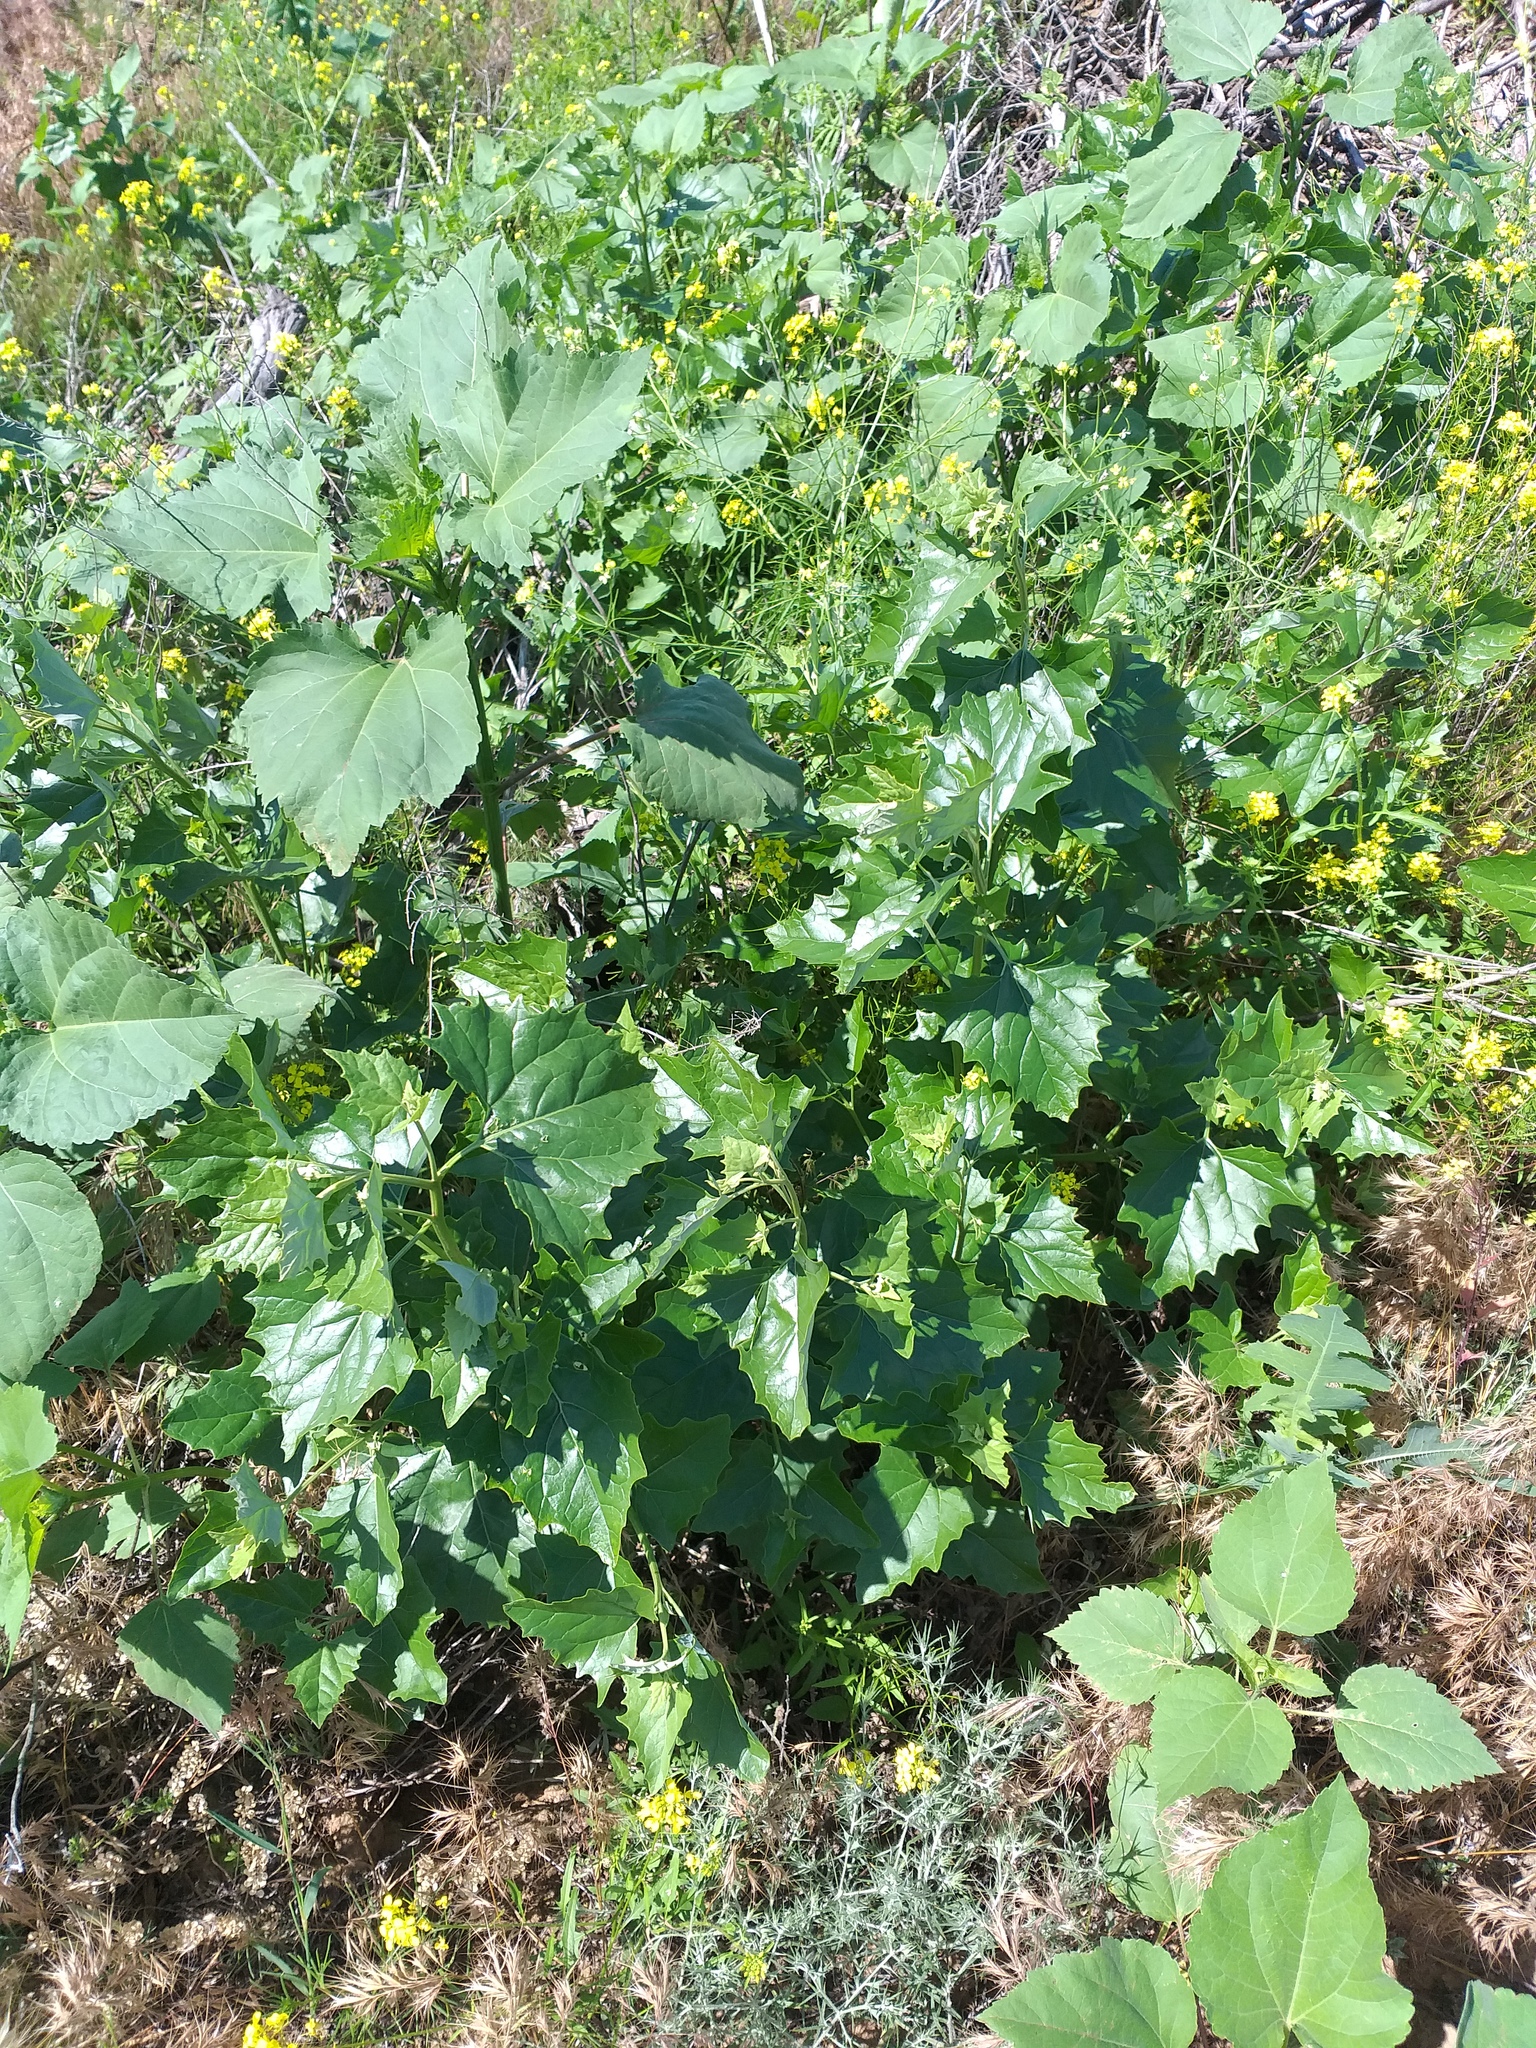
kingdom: Plantae
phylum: Tracheophyta
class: Magnoliopsida
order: Caryophyllales
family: Amaranthaceae
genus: Atriplex
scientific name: Atriplex sagittata
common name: Purple orache
